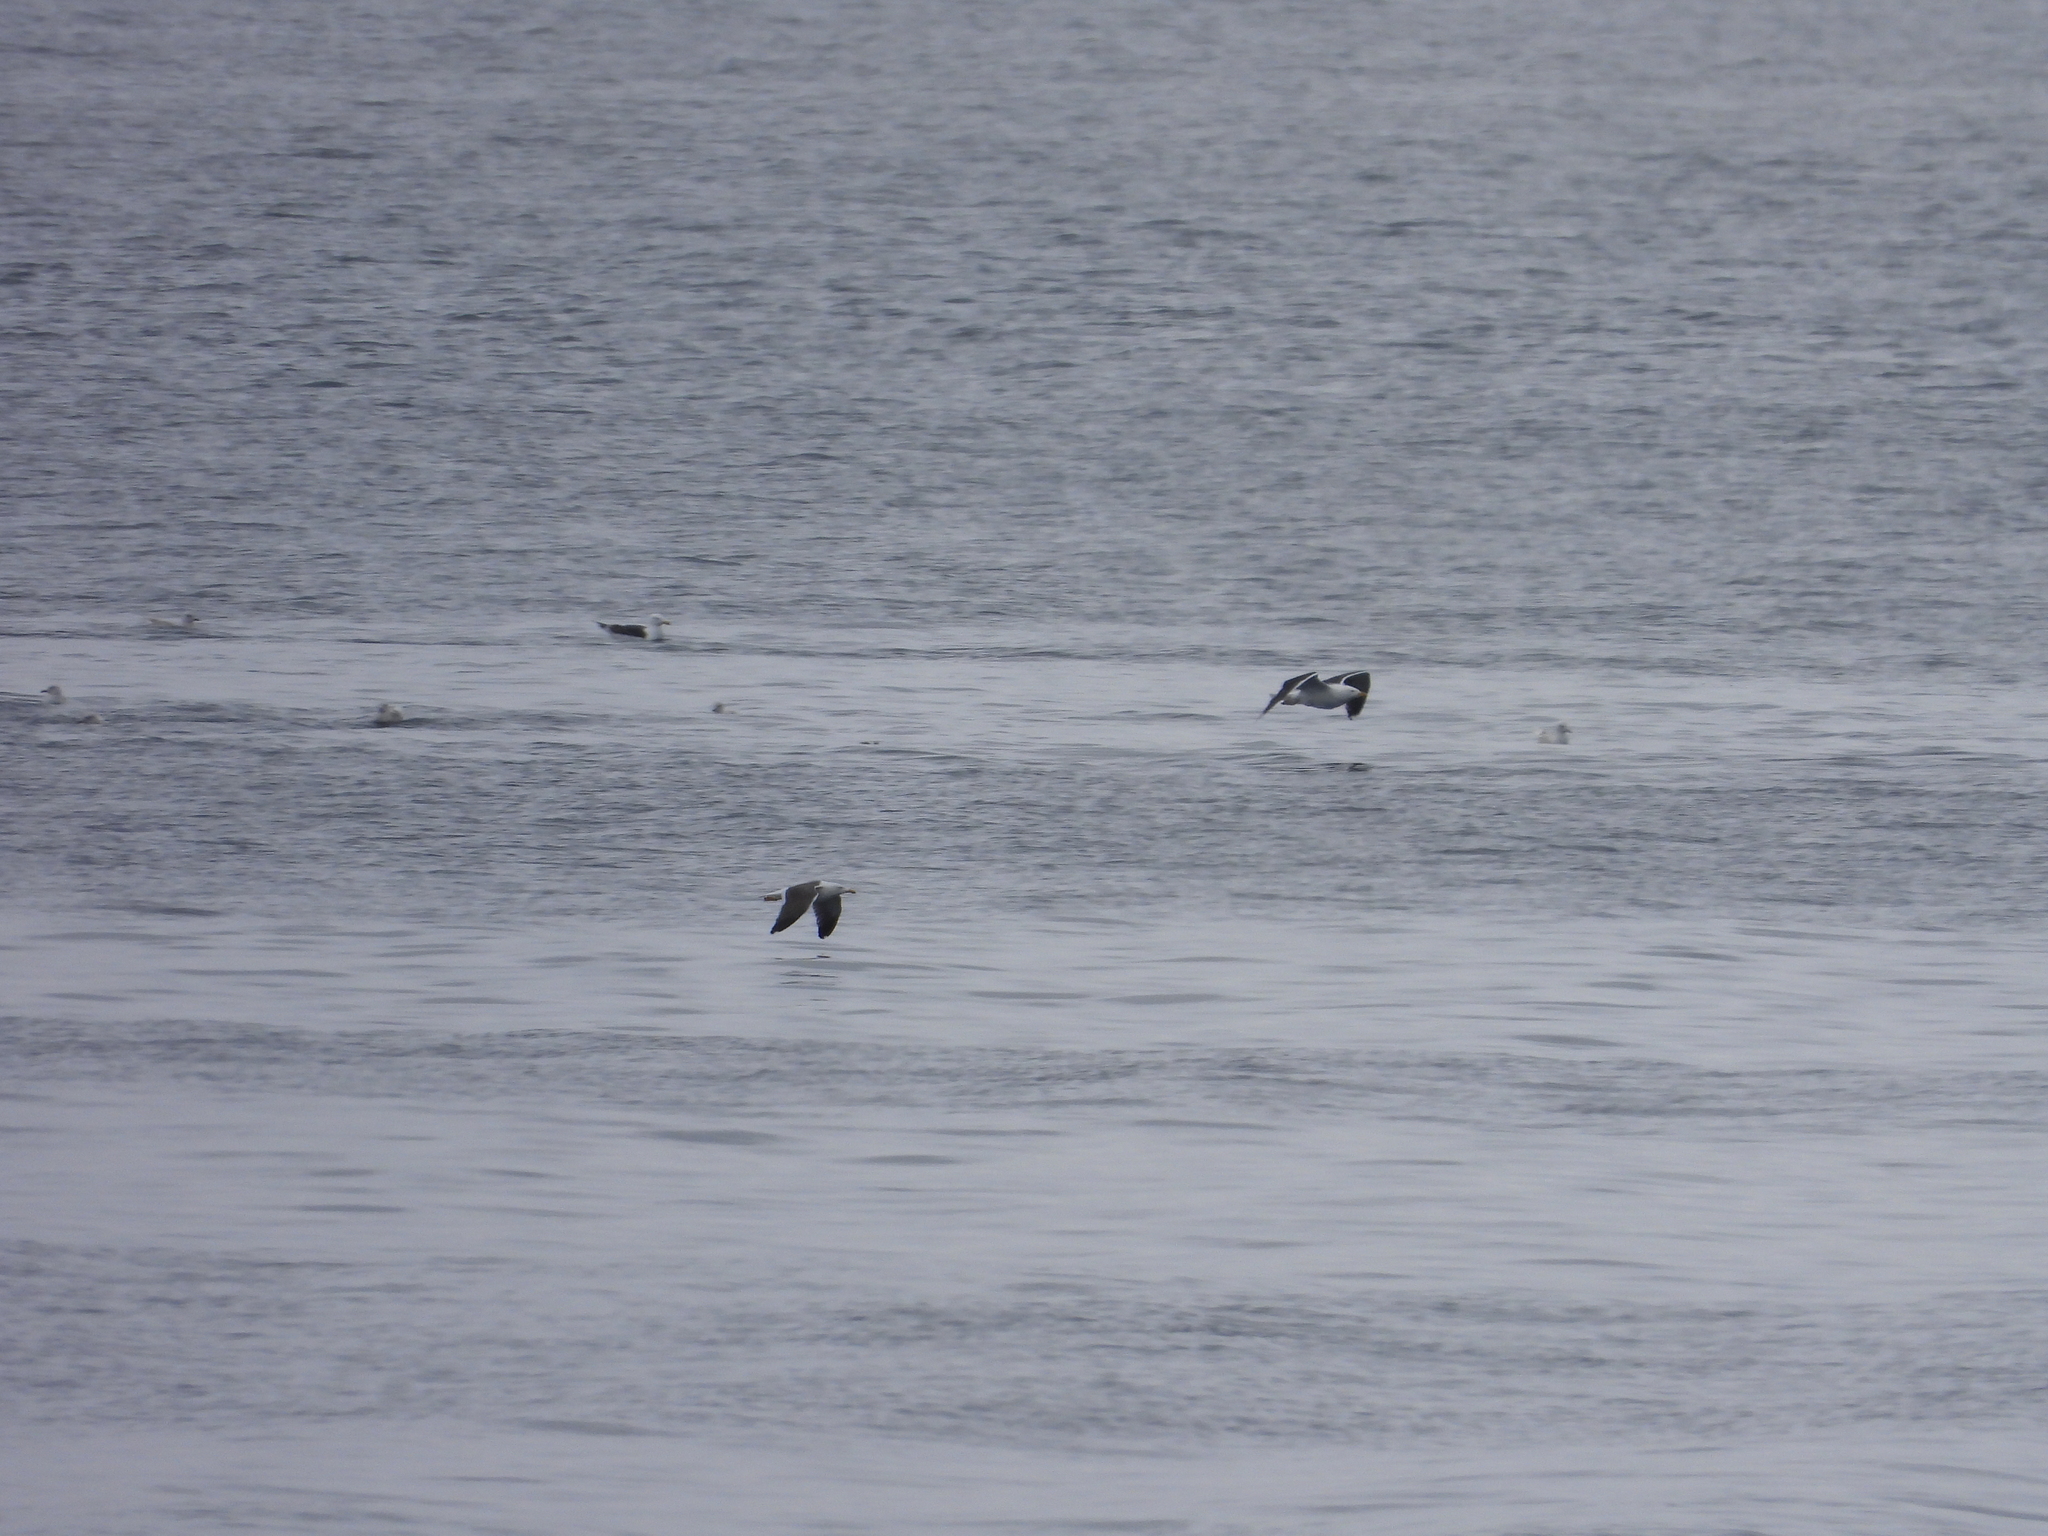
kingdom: Animalia
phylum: Chordata
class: Aves
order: Charadriiformes
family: Laridae
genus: Larus
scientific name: Larus fuscus
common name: Lesser black-backed gull
